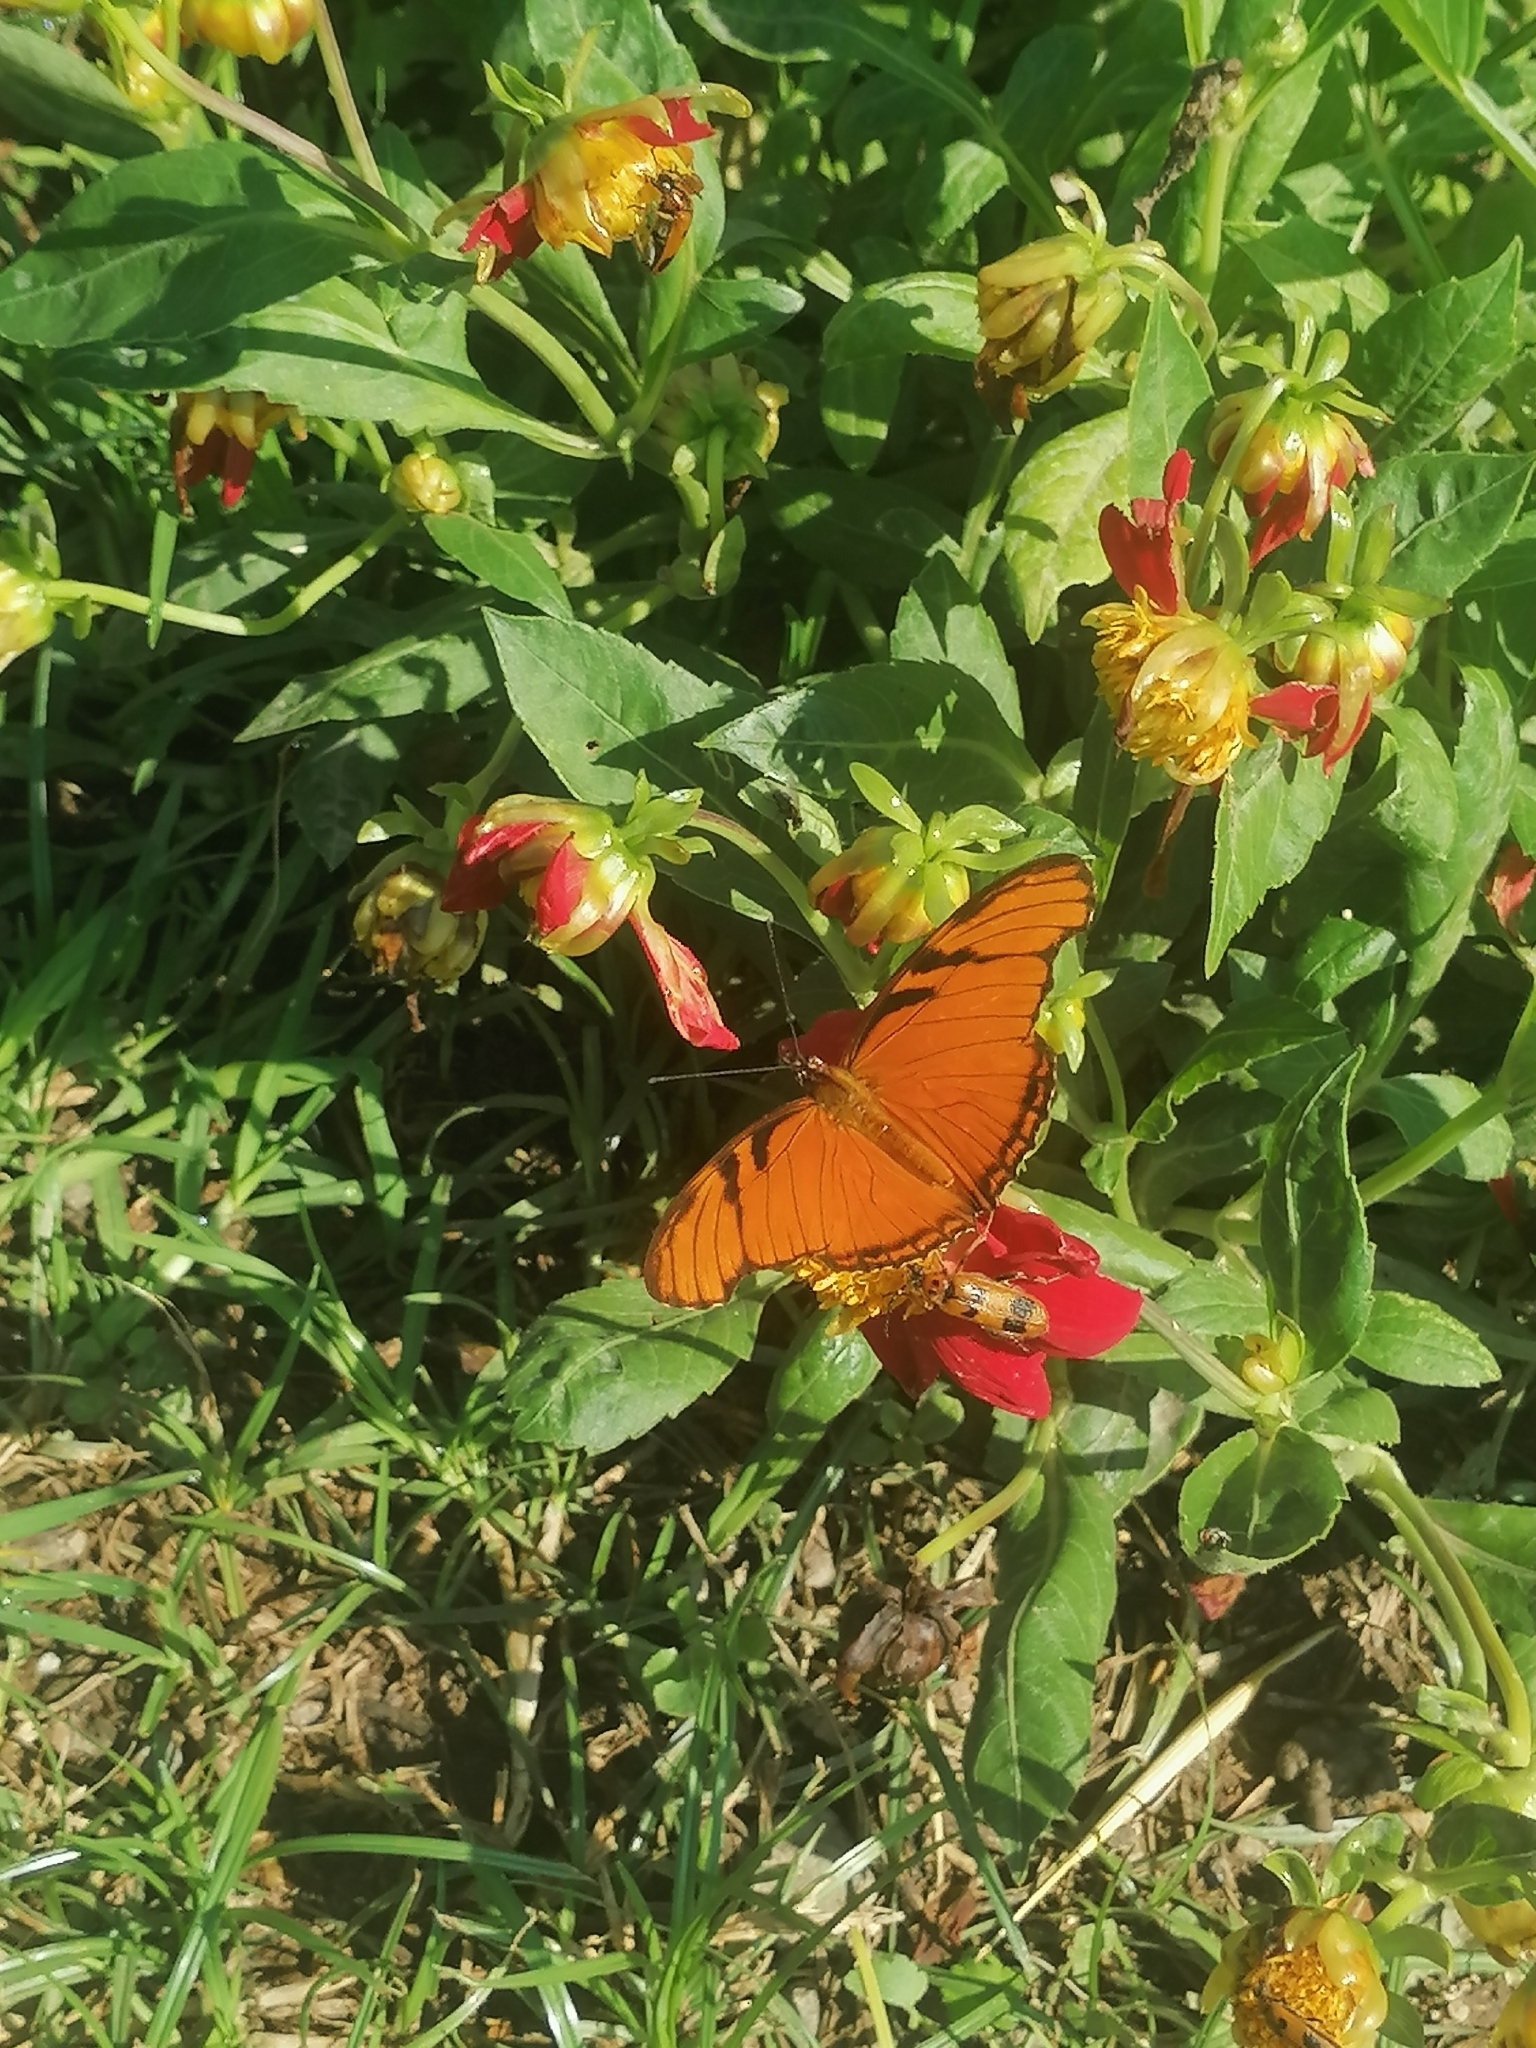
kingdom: Animalia
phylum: Arthropoda
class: Insecta
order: Lepidoptera
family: Nymphalidae
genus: Dione
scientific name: Dione juno
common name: Juno silverspot
